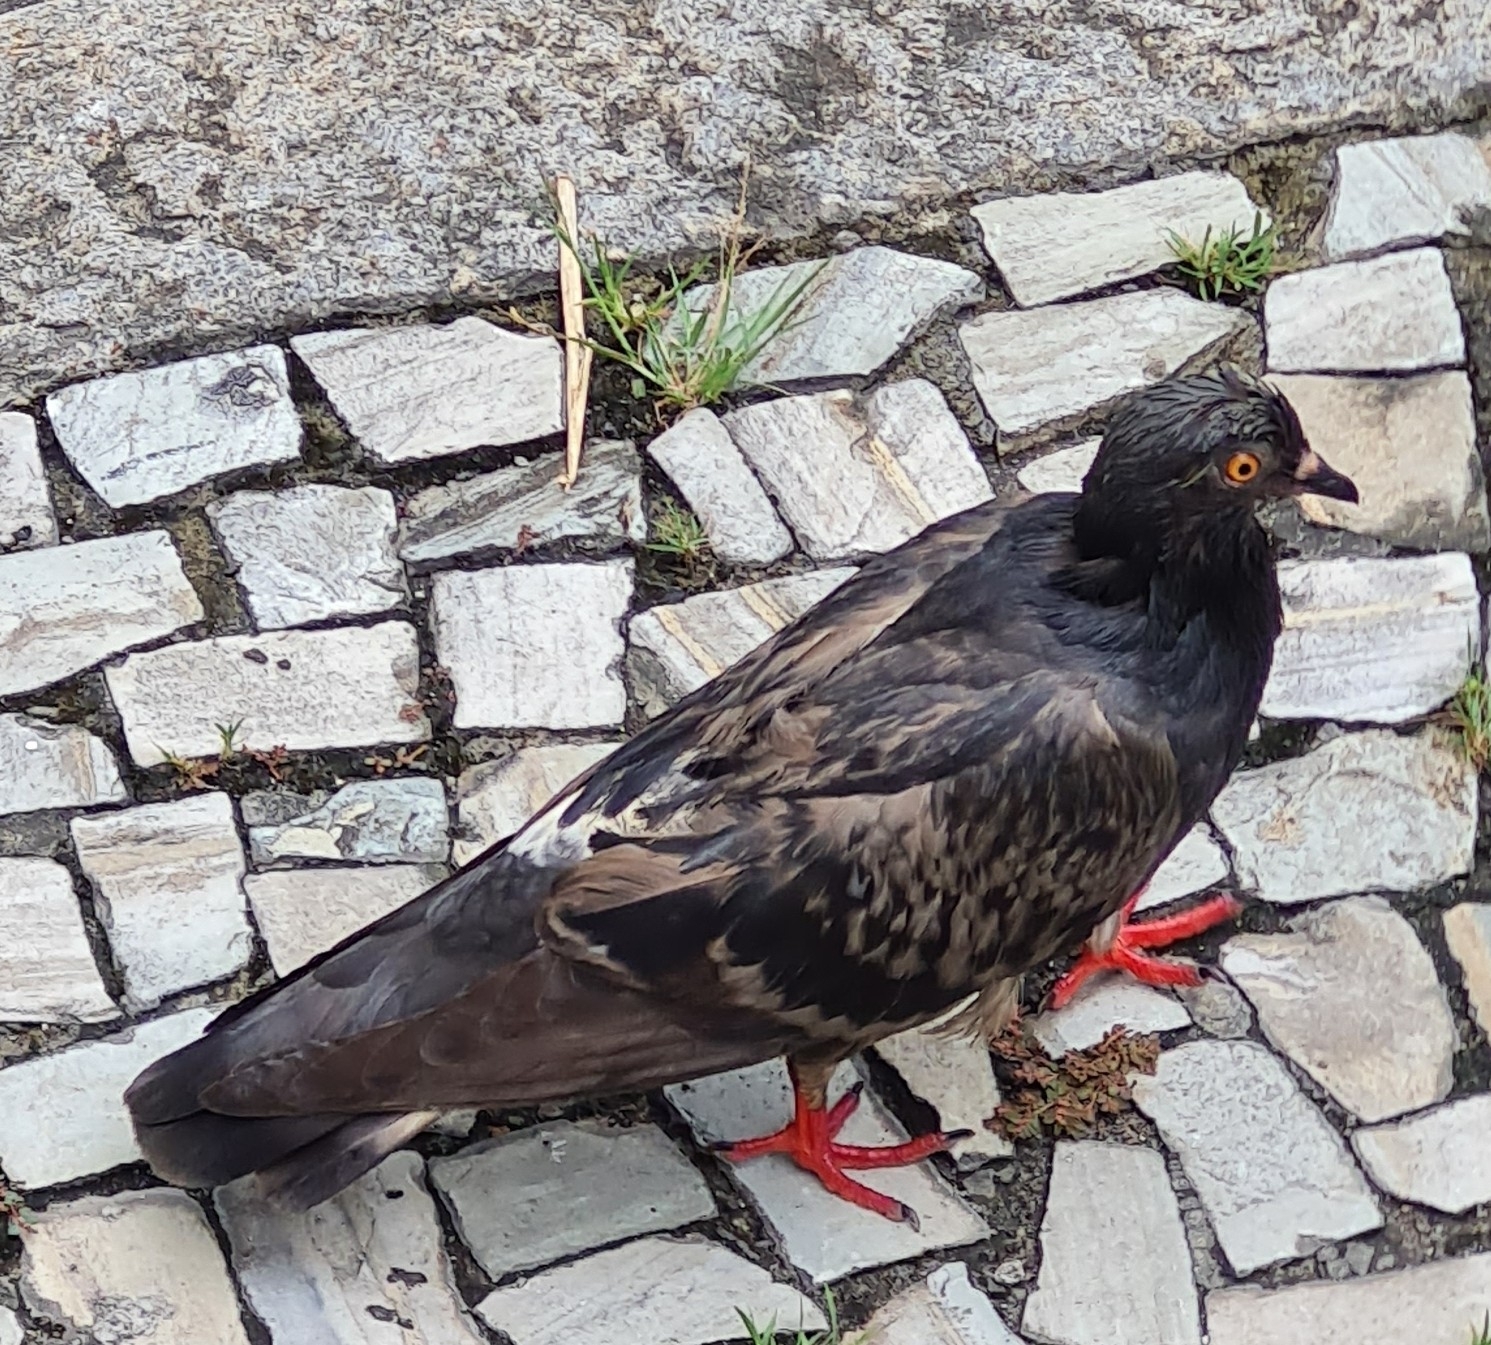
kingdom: Animalia
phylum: Chordata
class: Aves
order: Columbiformes
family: Columbidae
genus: Columba
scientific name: Columba livia
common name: Rock pigeon
